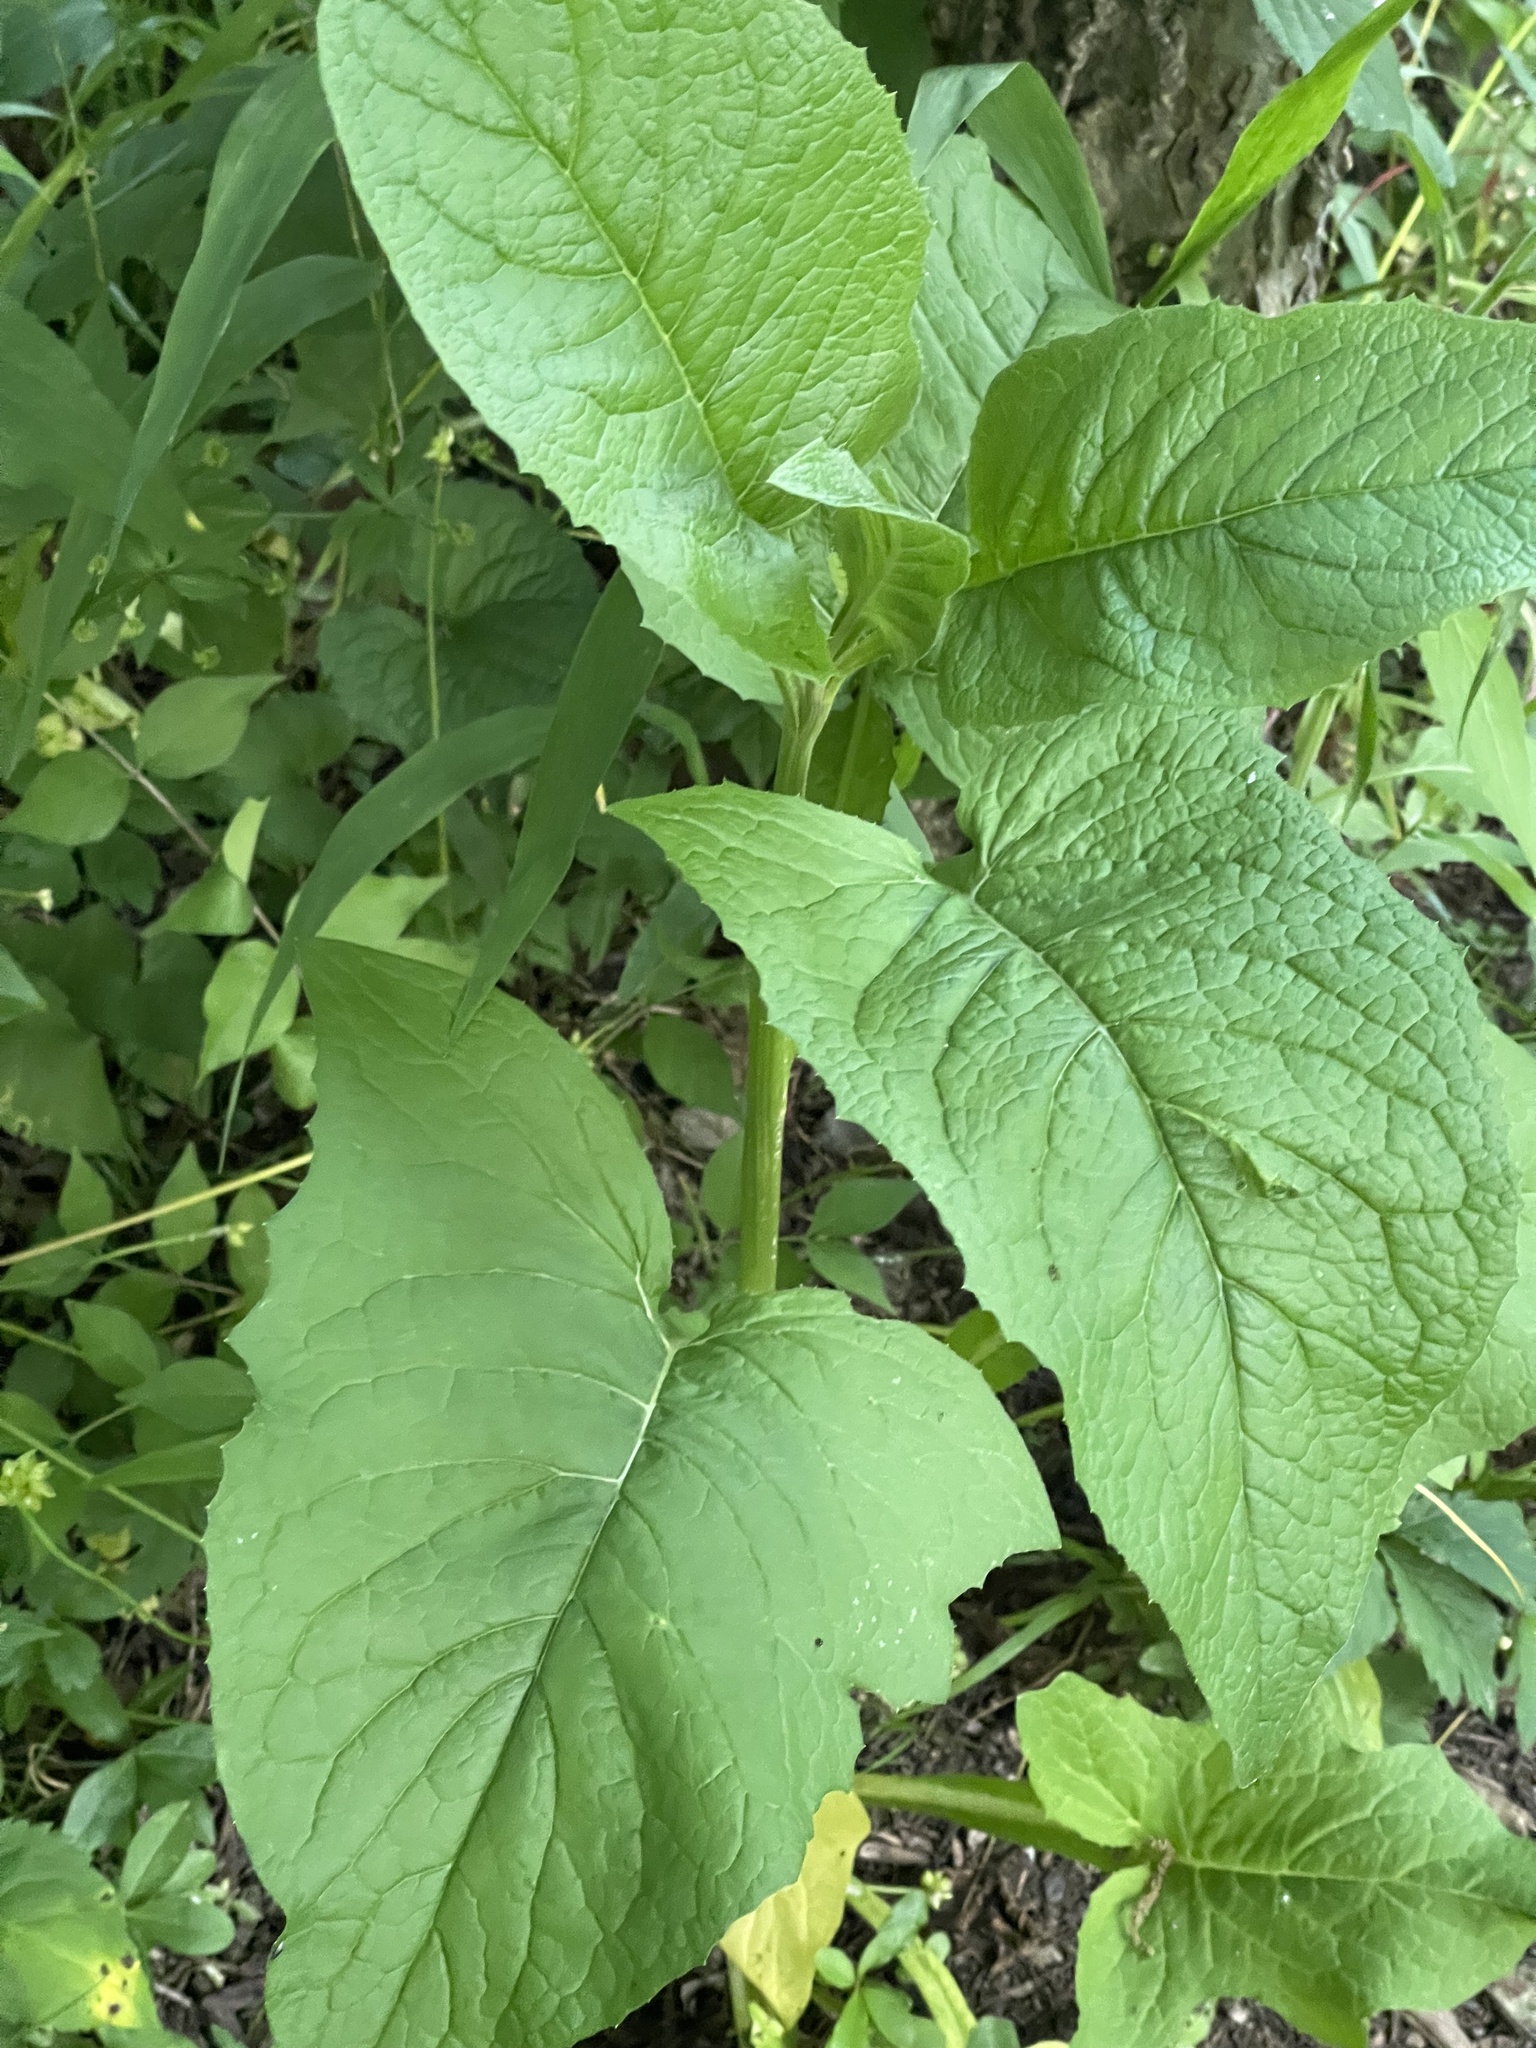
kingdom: Plantae
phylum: Tracheophyta
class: Magnoliopsida
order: Asterales
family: Asteraceae
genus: Nabalus
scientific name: Nabalus crepidineus
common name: Nodding rattlesnakeroot
